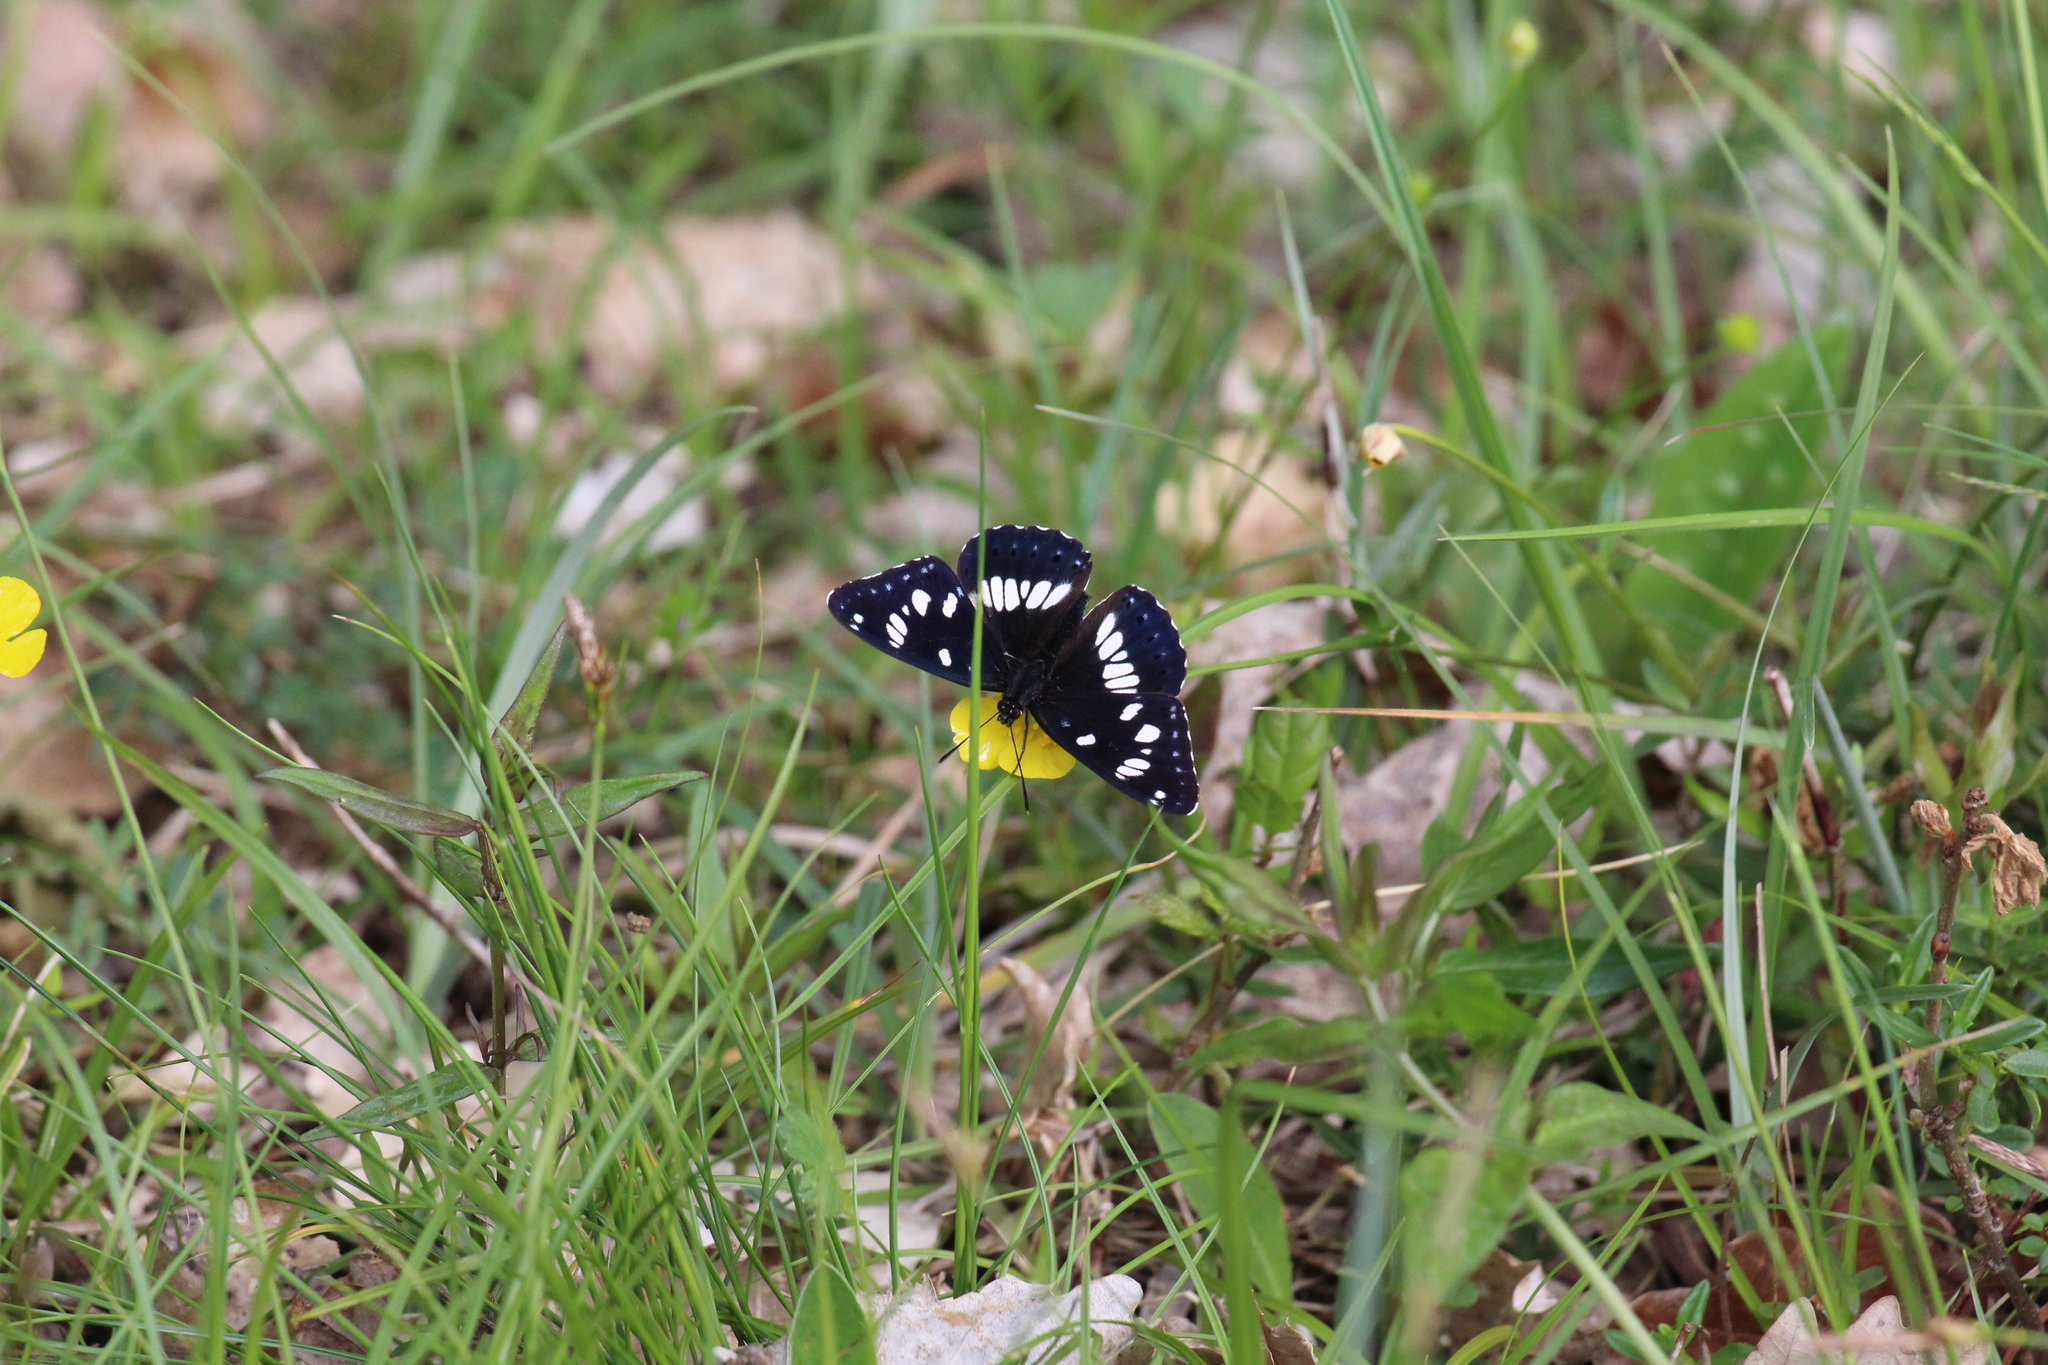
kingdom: Animalia
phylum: Arthropoda
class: Insecta
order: Lepidoptera
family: Nymphalidae
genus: Limenitis
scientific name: Limenitis reducta
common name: Southern white admiral
